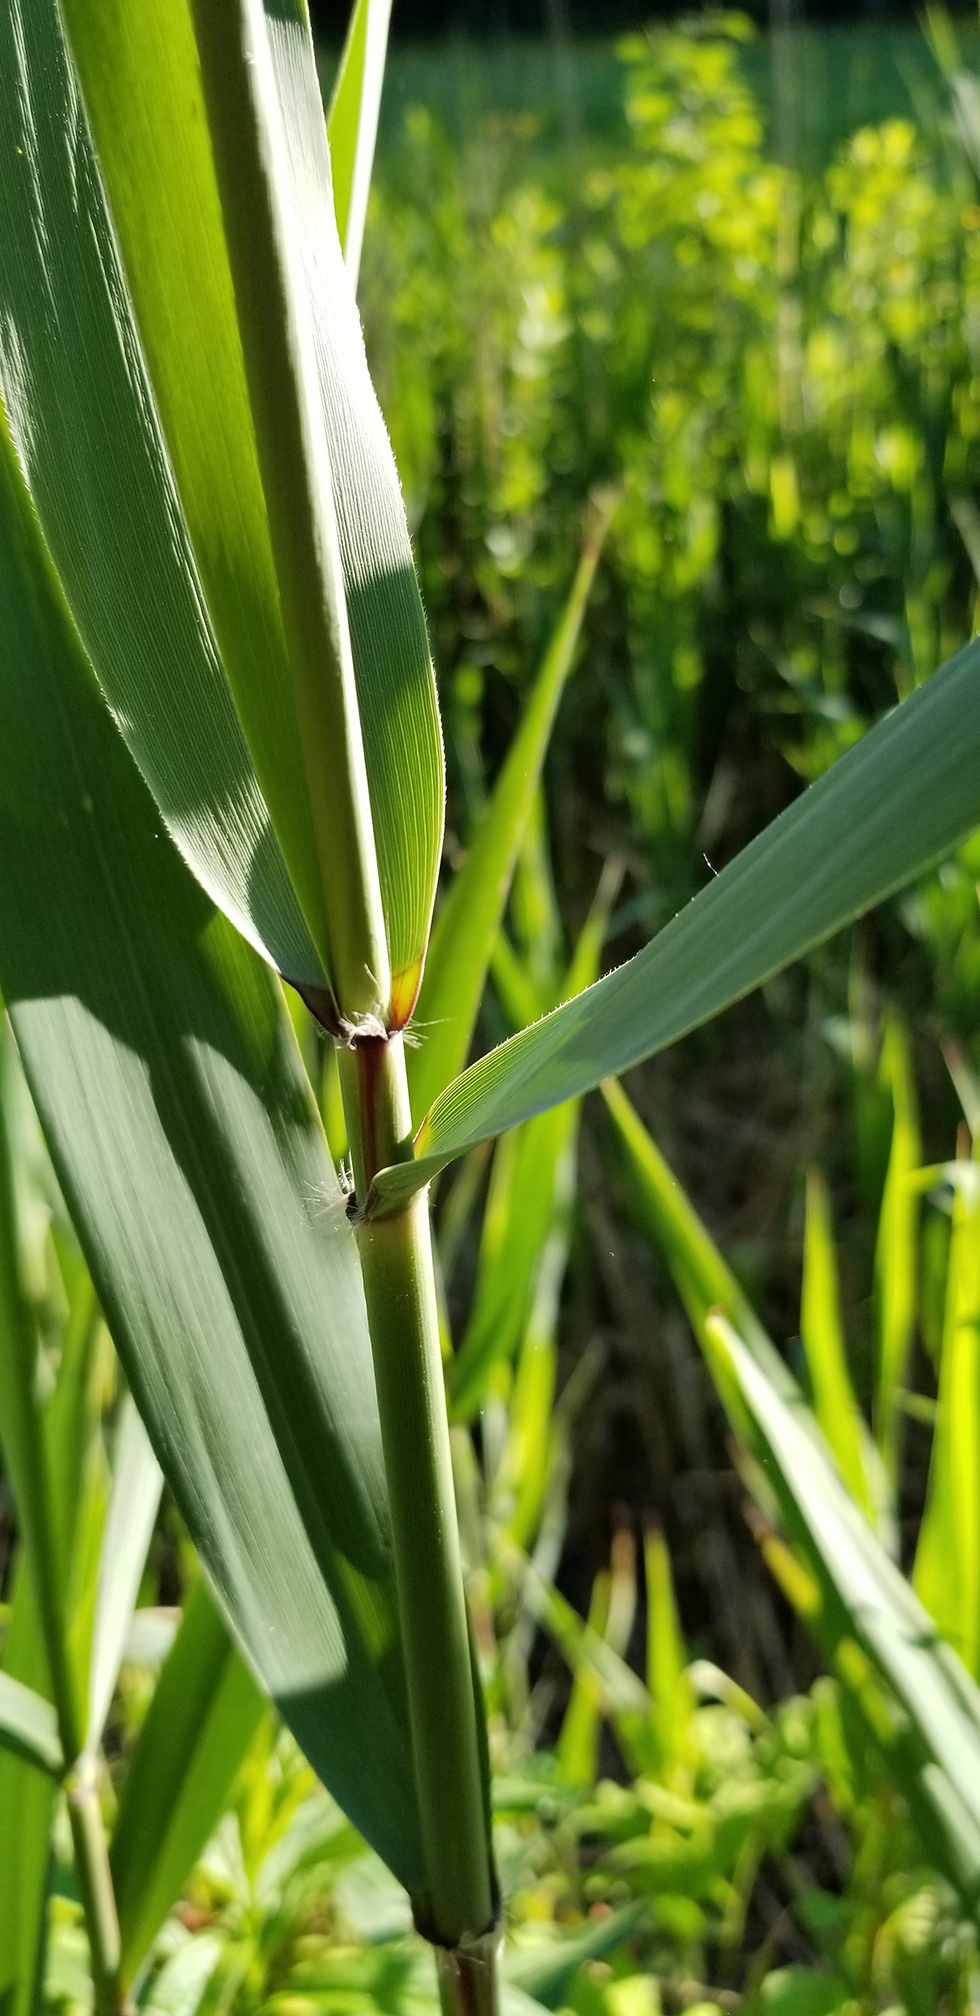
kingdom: Plantae
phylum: Tracheophyta
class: Liliopsida
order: Poales
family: Poaceae
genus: Phragmites
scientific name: Phragmites australis
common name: Common reed
